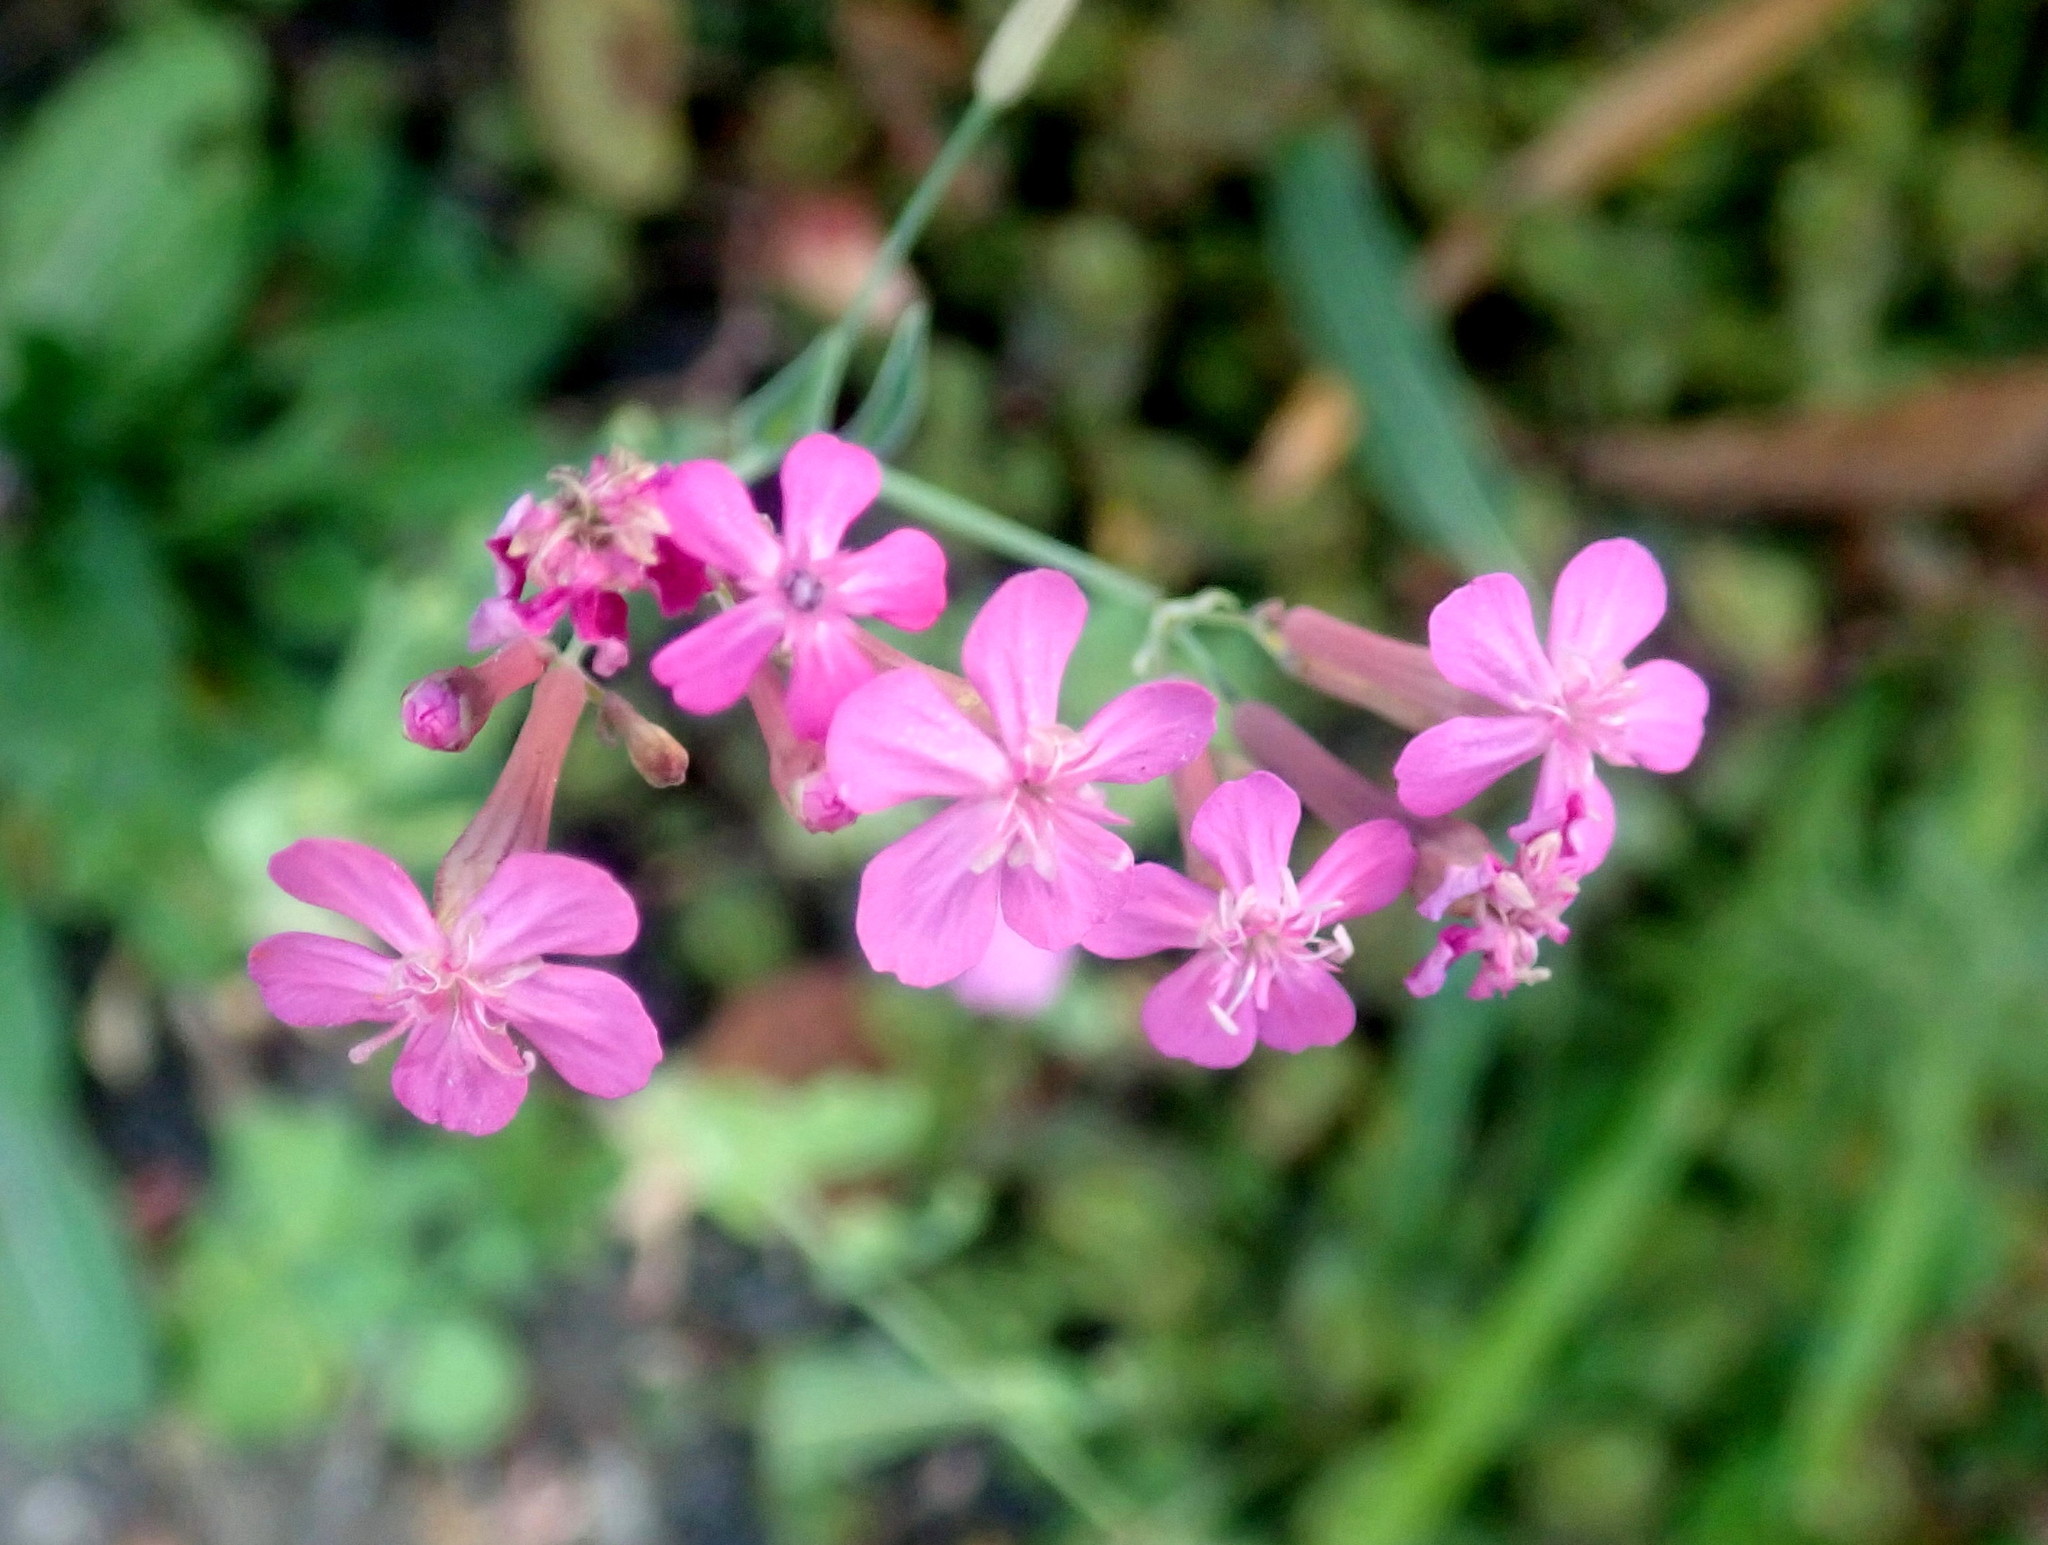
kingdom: Plantae
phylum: Tracheophyta
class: Magnoliopsida
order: Caryophyllales
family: Caryophyllaceae
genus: Atocion
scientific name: Atocion armeria
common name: Sweet william catchfly
